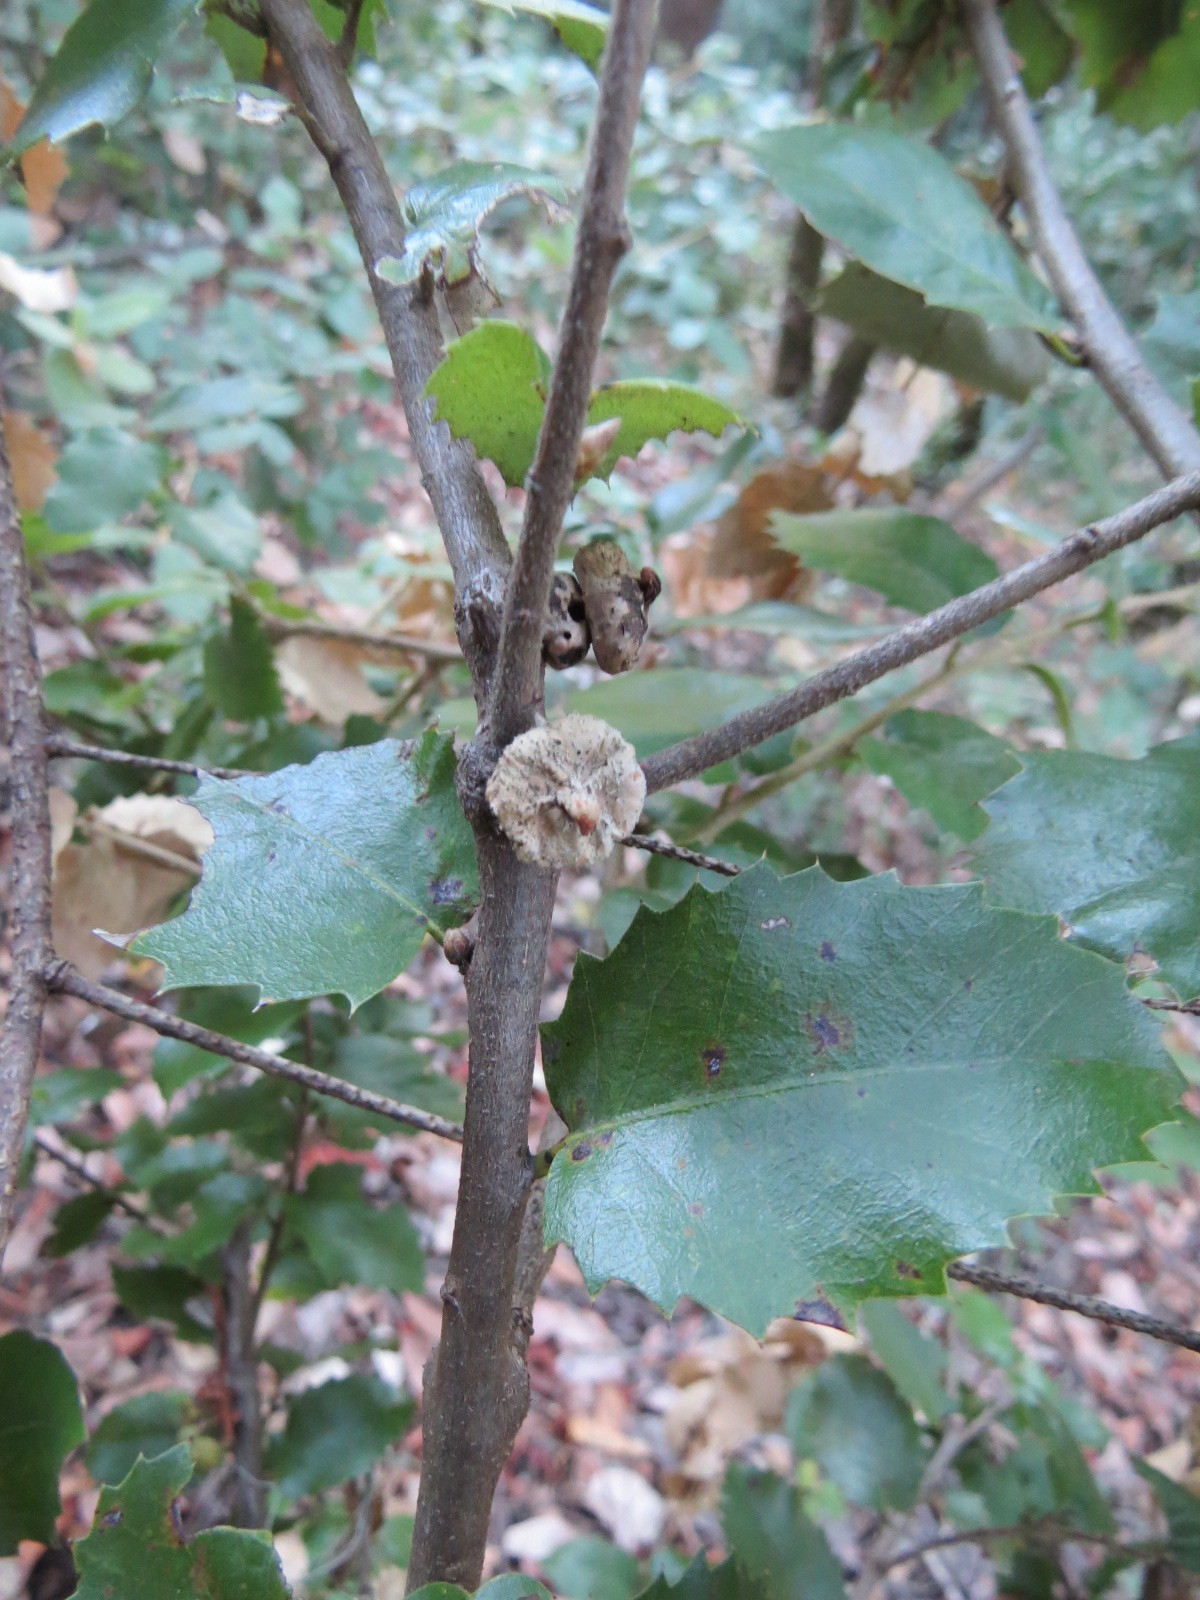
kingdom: Animalia
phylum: Arthropoda
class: Insecta
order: Hymenoptera
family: Cynipidae
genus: Heteroecus
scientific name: Heteroecus
